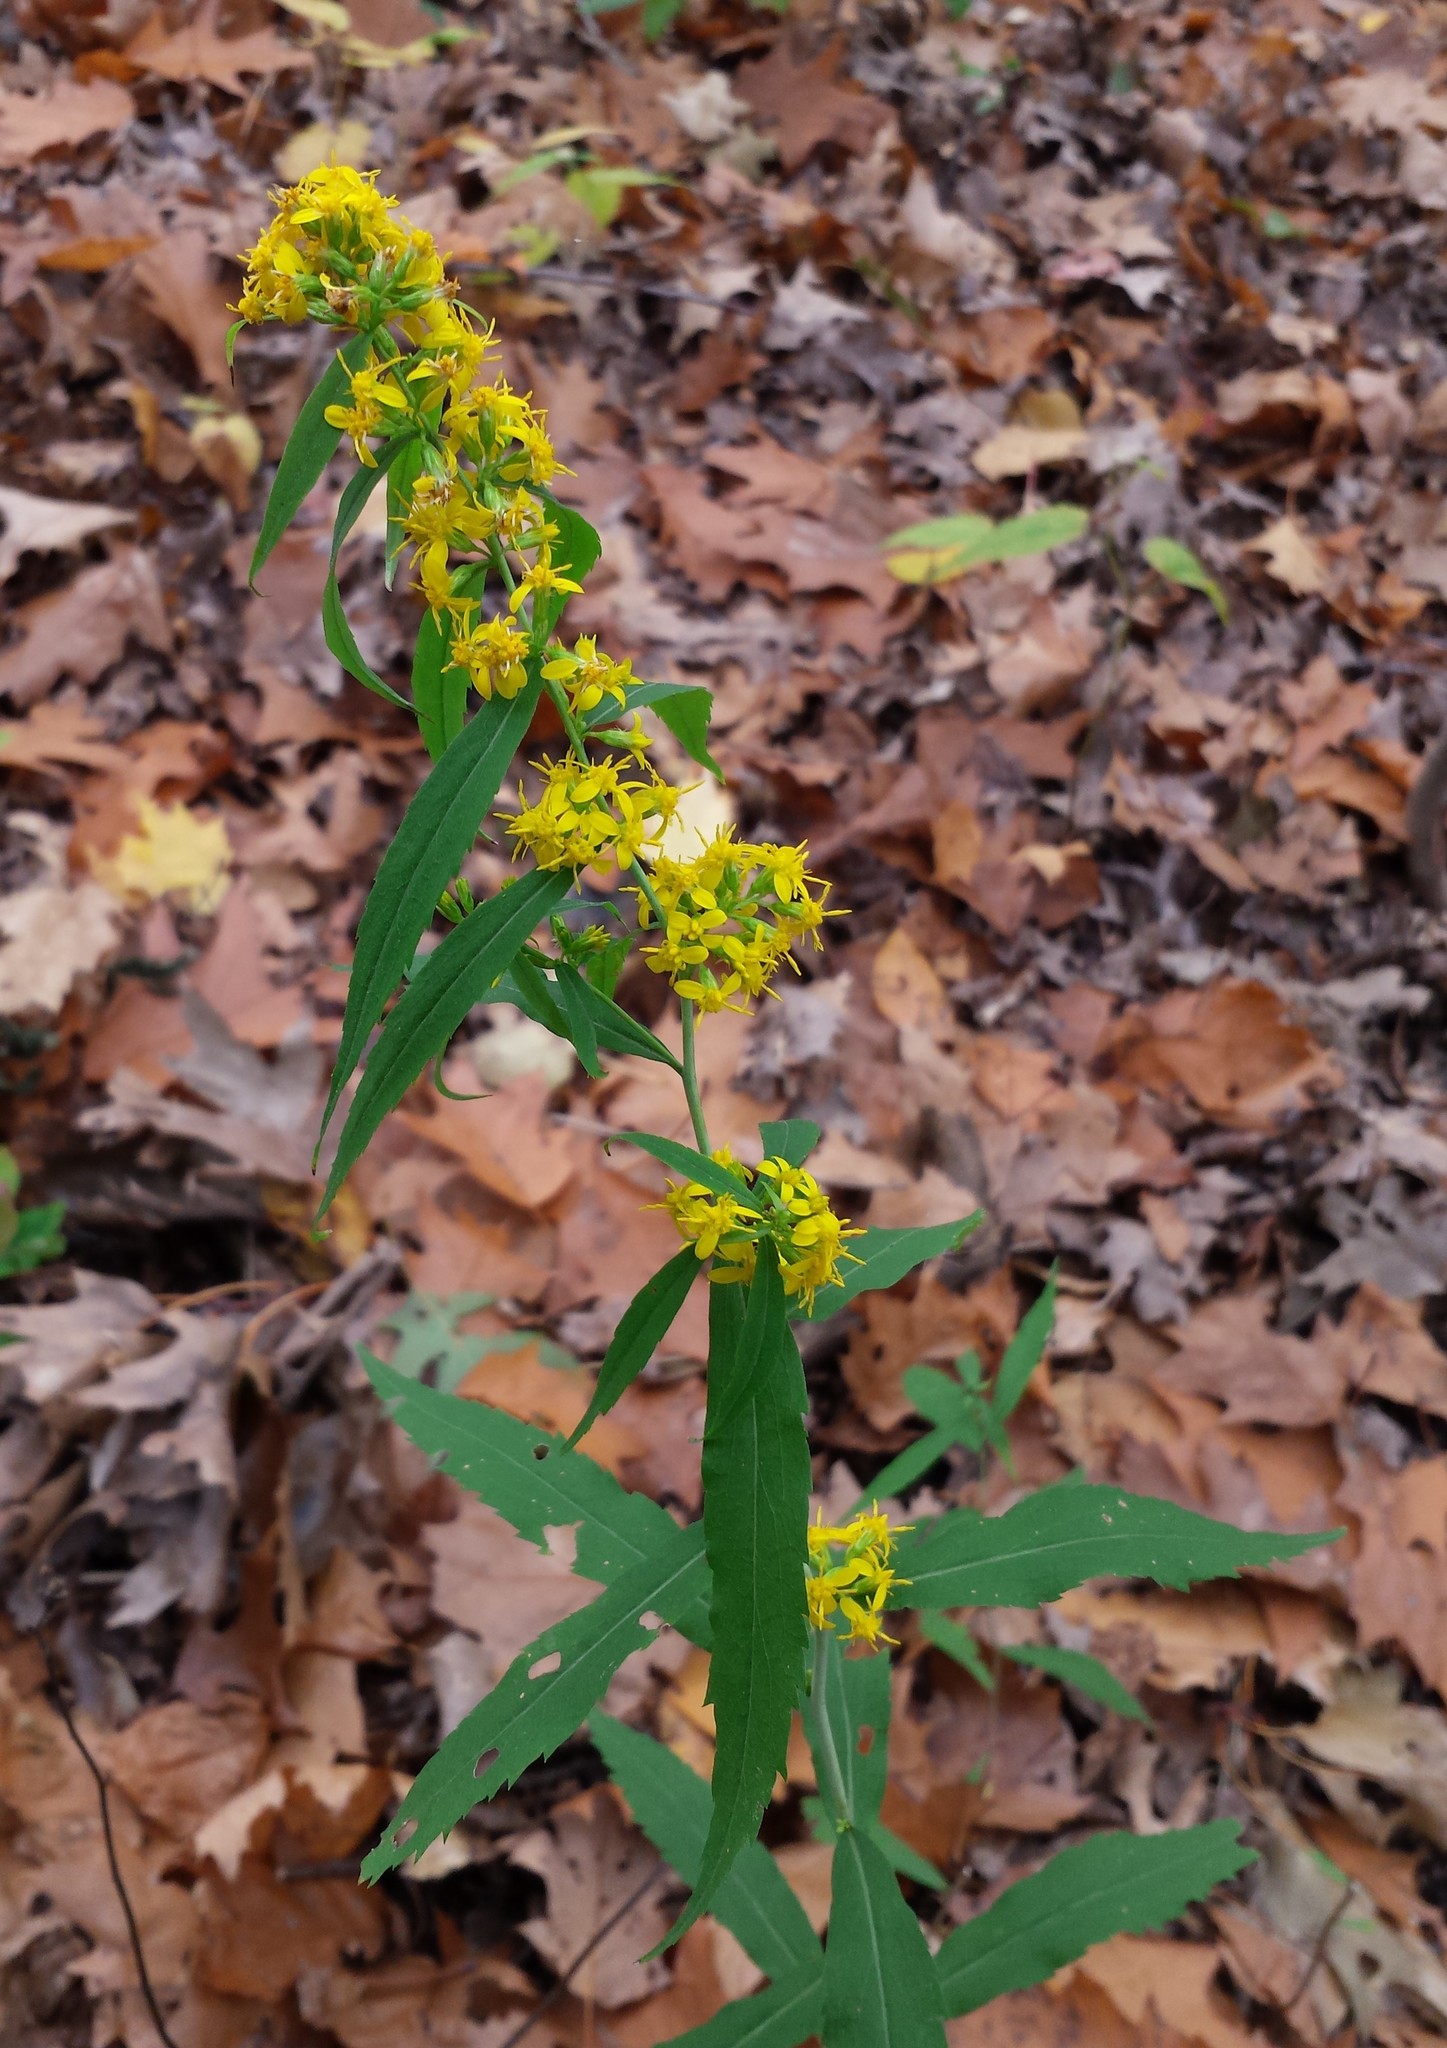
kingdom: Plantae
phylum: Tracheophyta
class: Magnoliopsida
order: Asterales
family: Asteraceae
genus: Solidago
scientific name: Solidago caesia
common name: Woodland goldenrod
